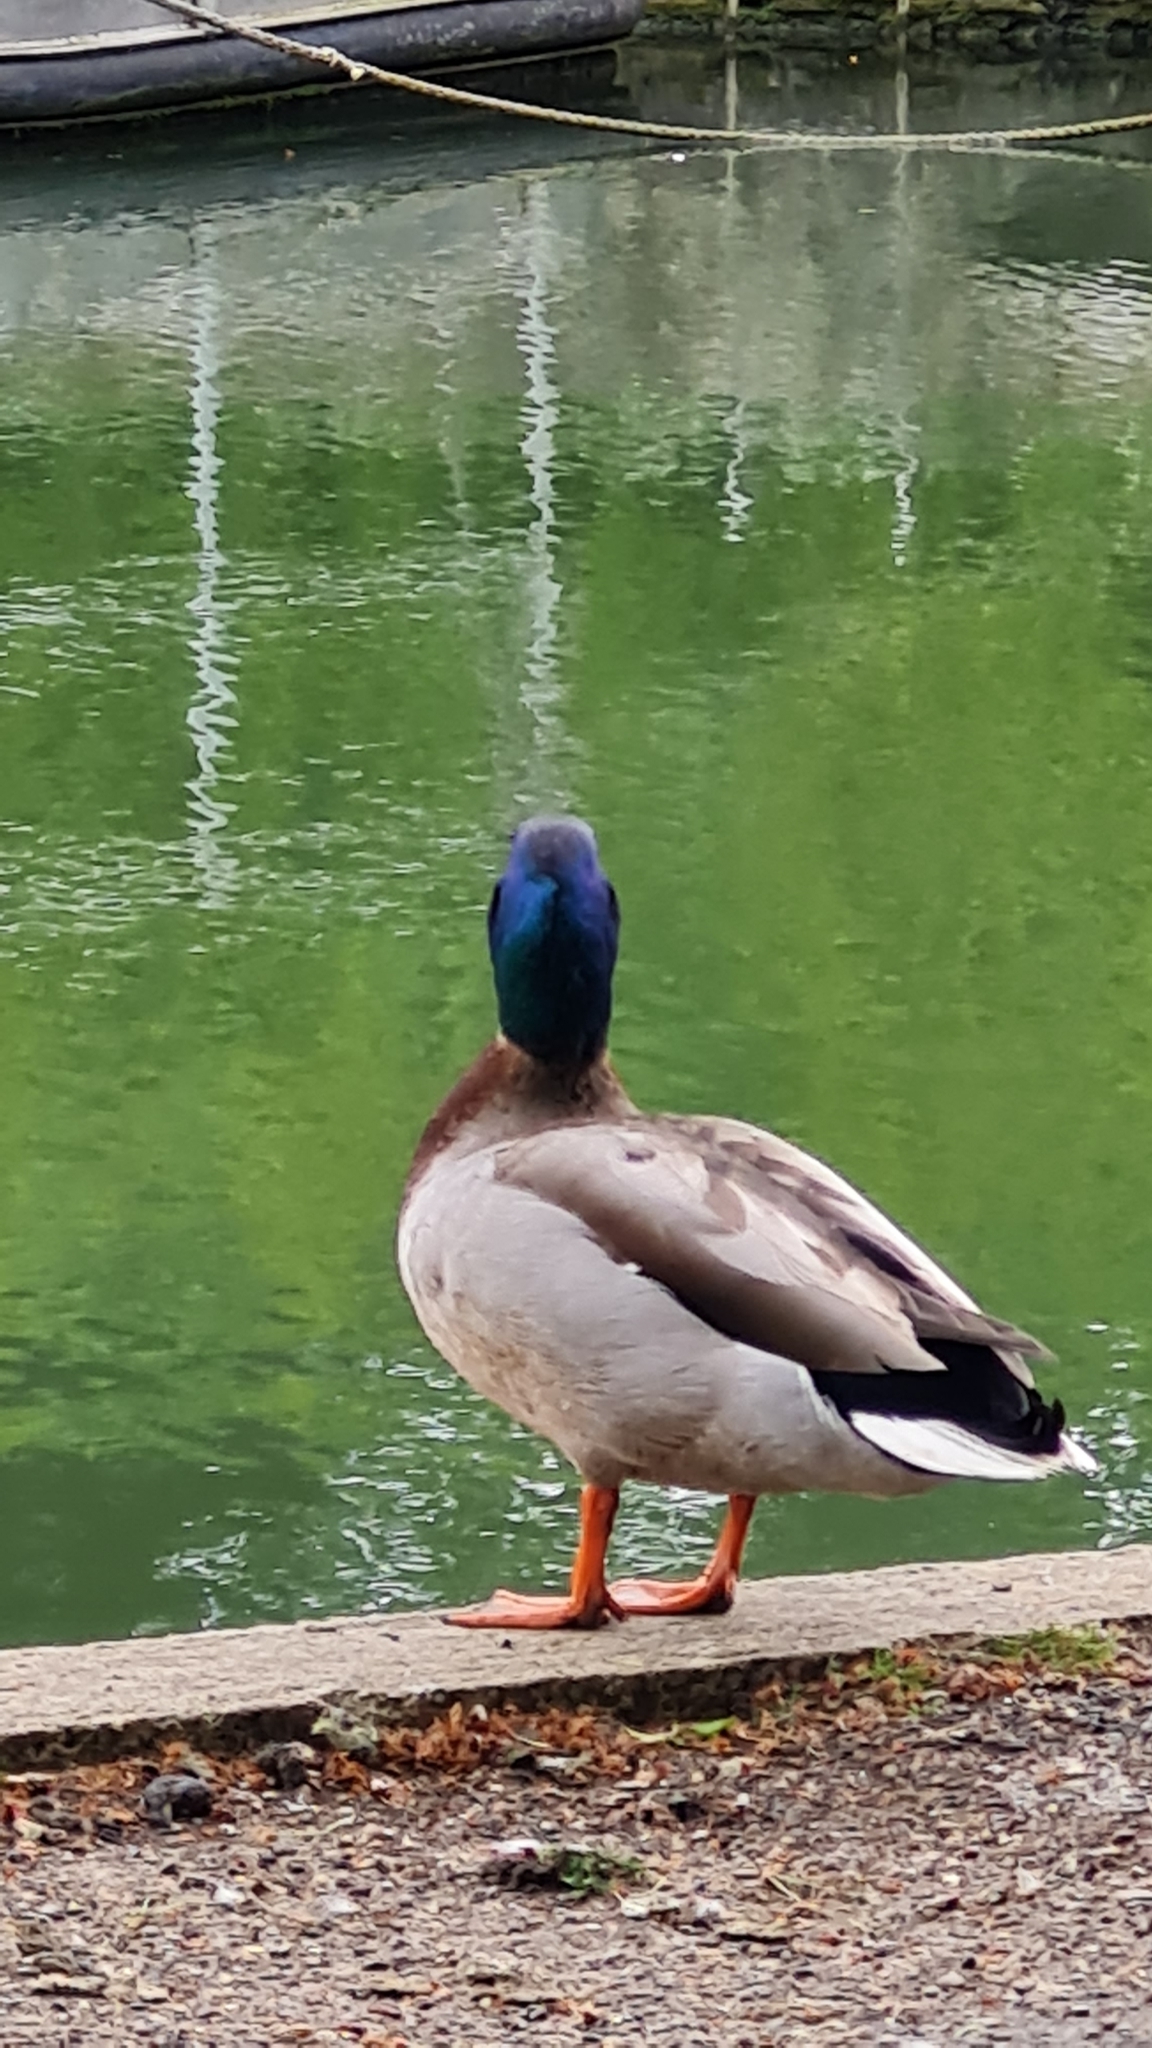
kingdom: Animalia
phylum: Chordata
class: Aves
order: Anseriformes
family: Anatidae
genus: Anas
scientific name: Anas platyrhynchos
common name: Mallard
